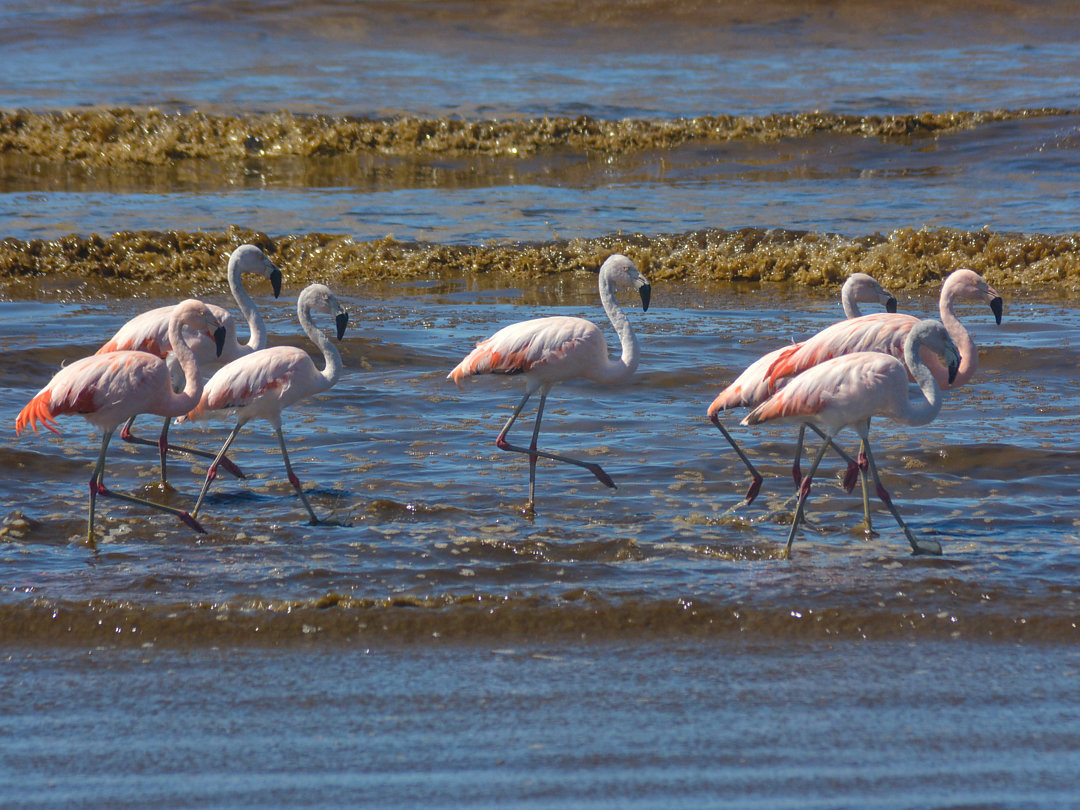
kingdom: Animalia
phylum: Chordata
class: Aves
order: Phoenicopteriformes
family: Phoenicopteridae
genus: Phoenicopterus
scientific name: Phoenicopterus chilensis
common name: Chilean flamingo
